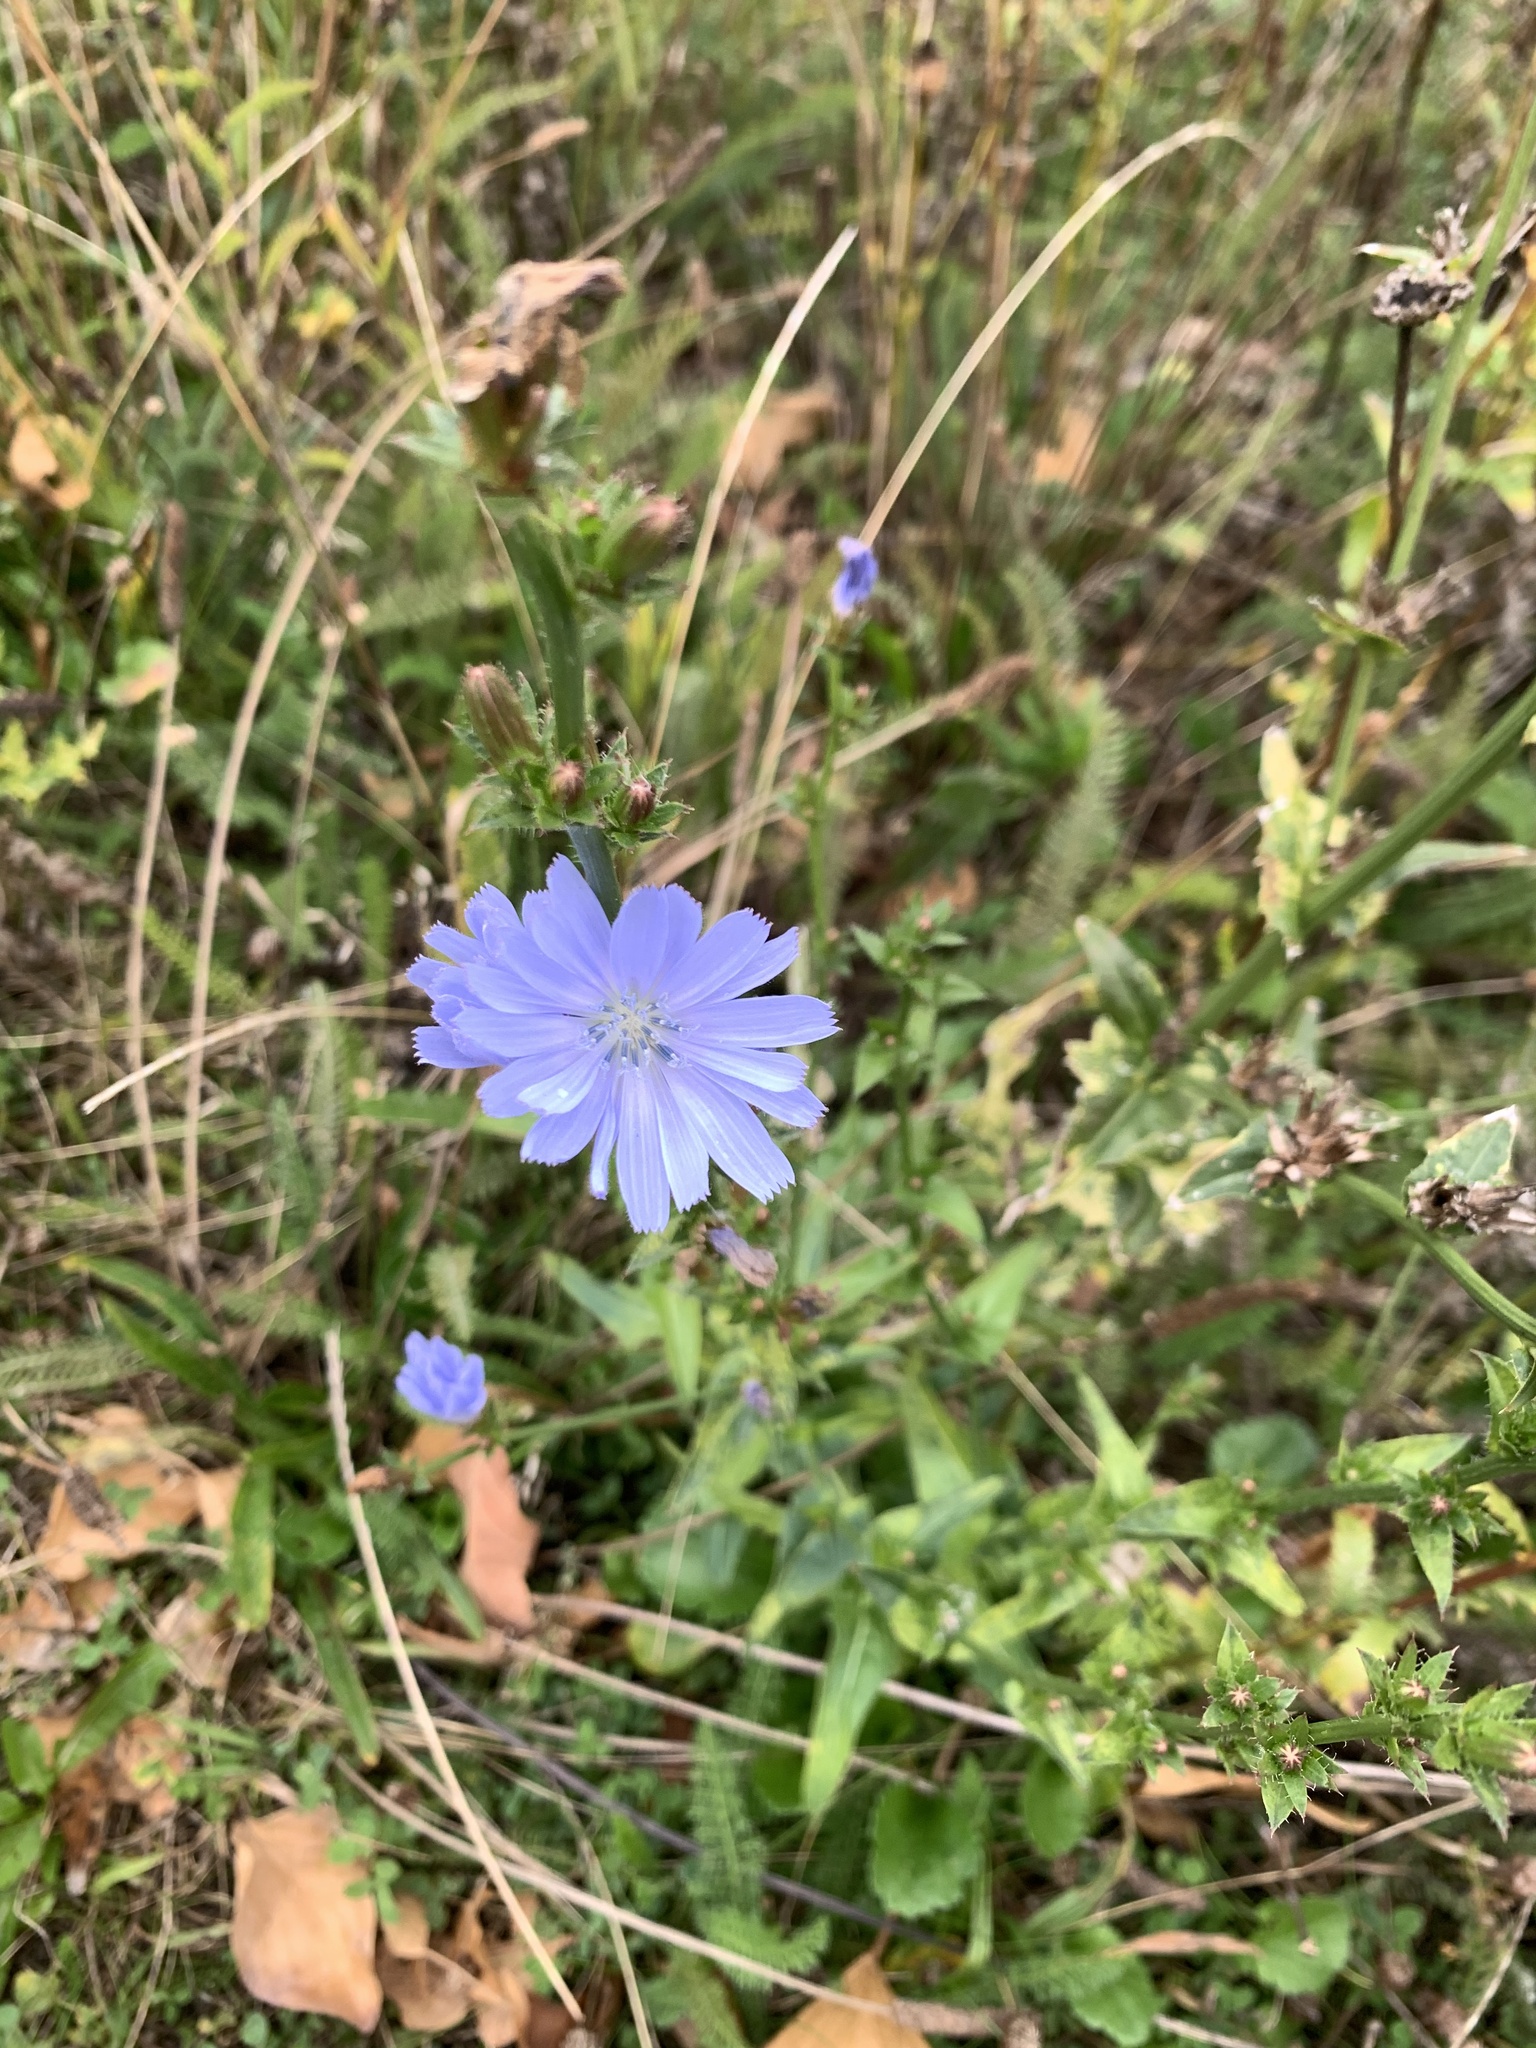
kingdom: Plantae
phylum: Tracheophyta
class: Magnoliopsida
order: Asterales
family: Asteraceae
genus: Cichorium
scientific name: Cichorium intybus
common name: Chicory
